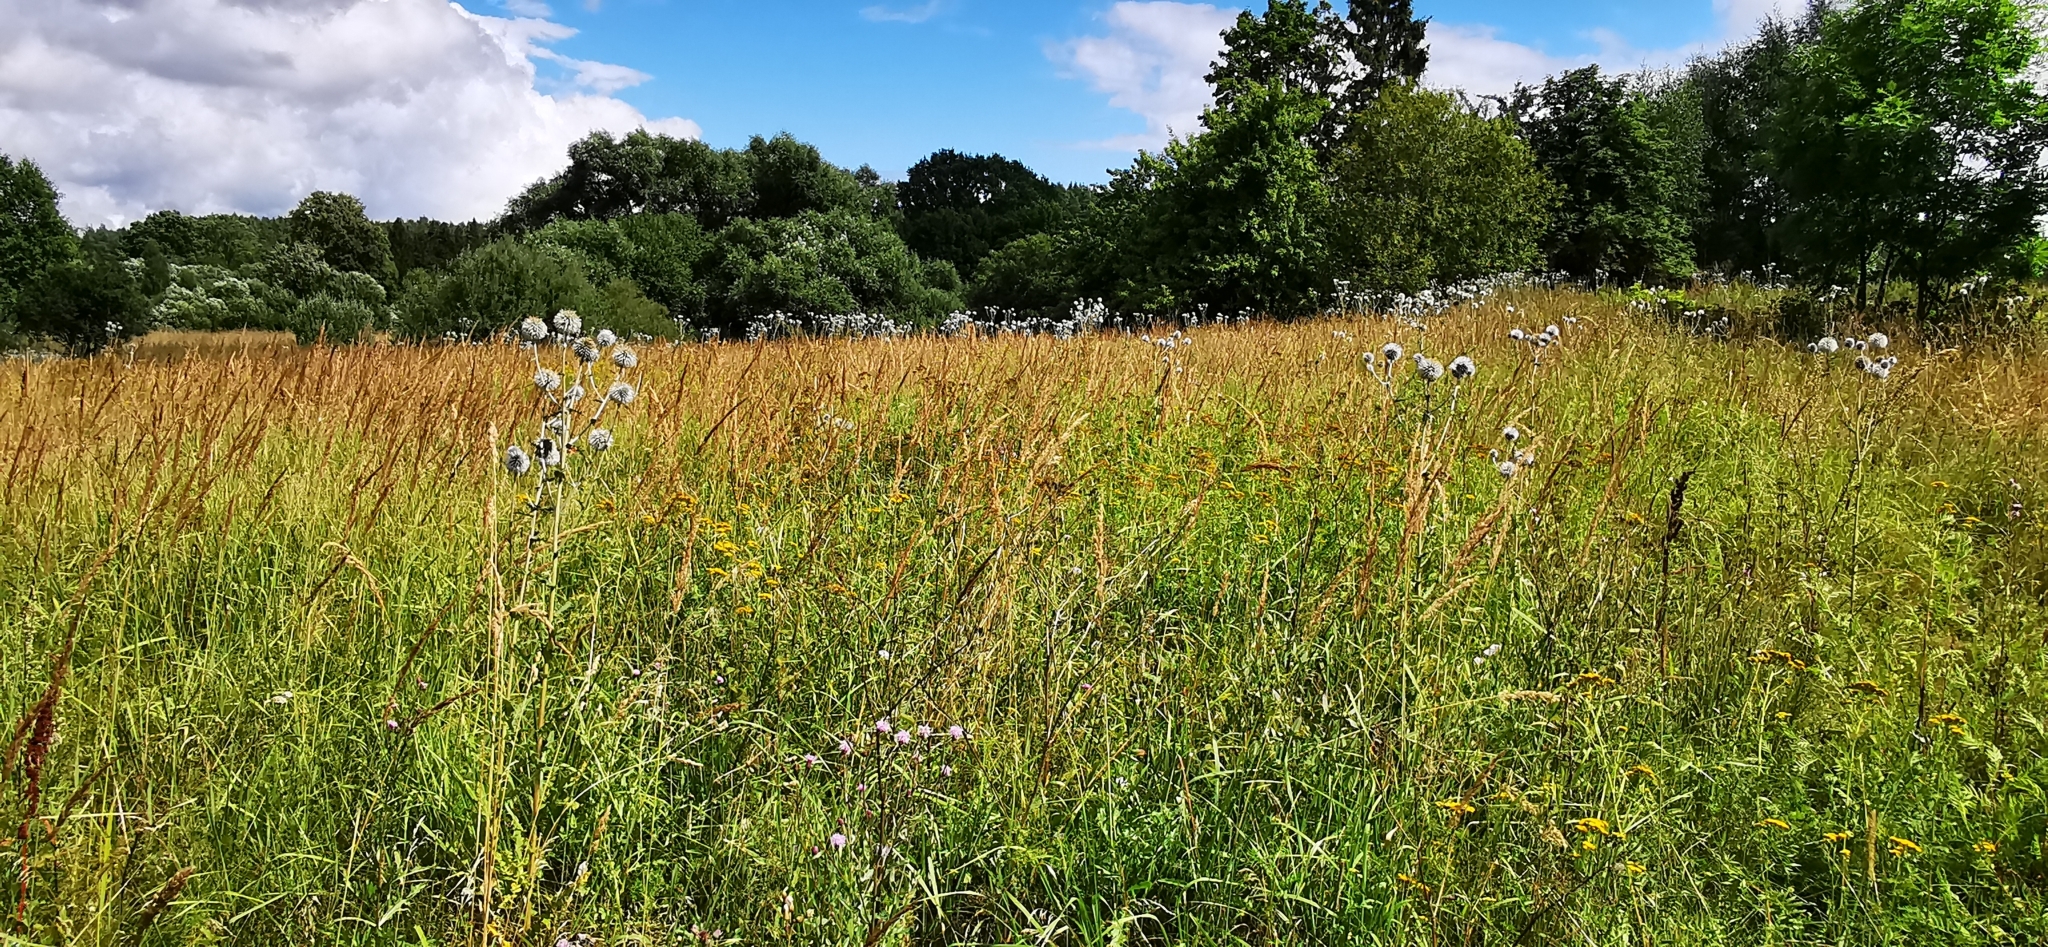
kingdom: Plantae
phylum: Tracheophyta
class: Magnoliopsida
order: Asterales
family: Asteraceae
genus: Echinops
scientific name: Echinops sphaerocephalus
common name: Glandular globe-thistle
